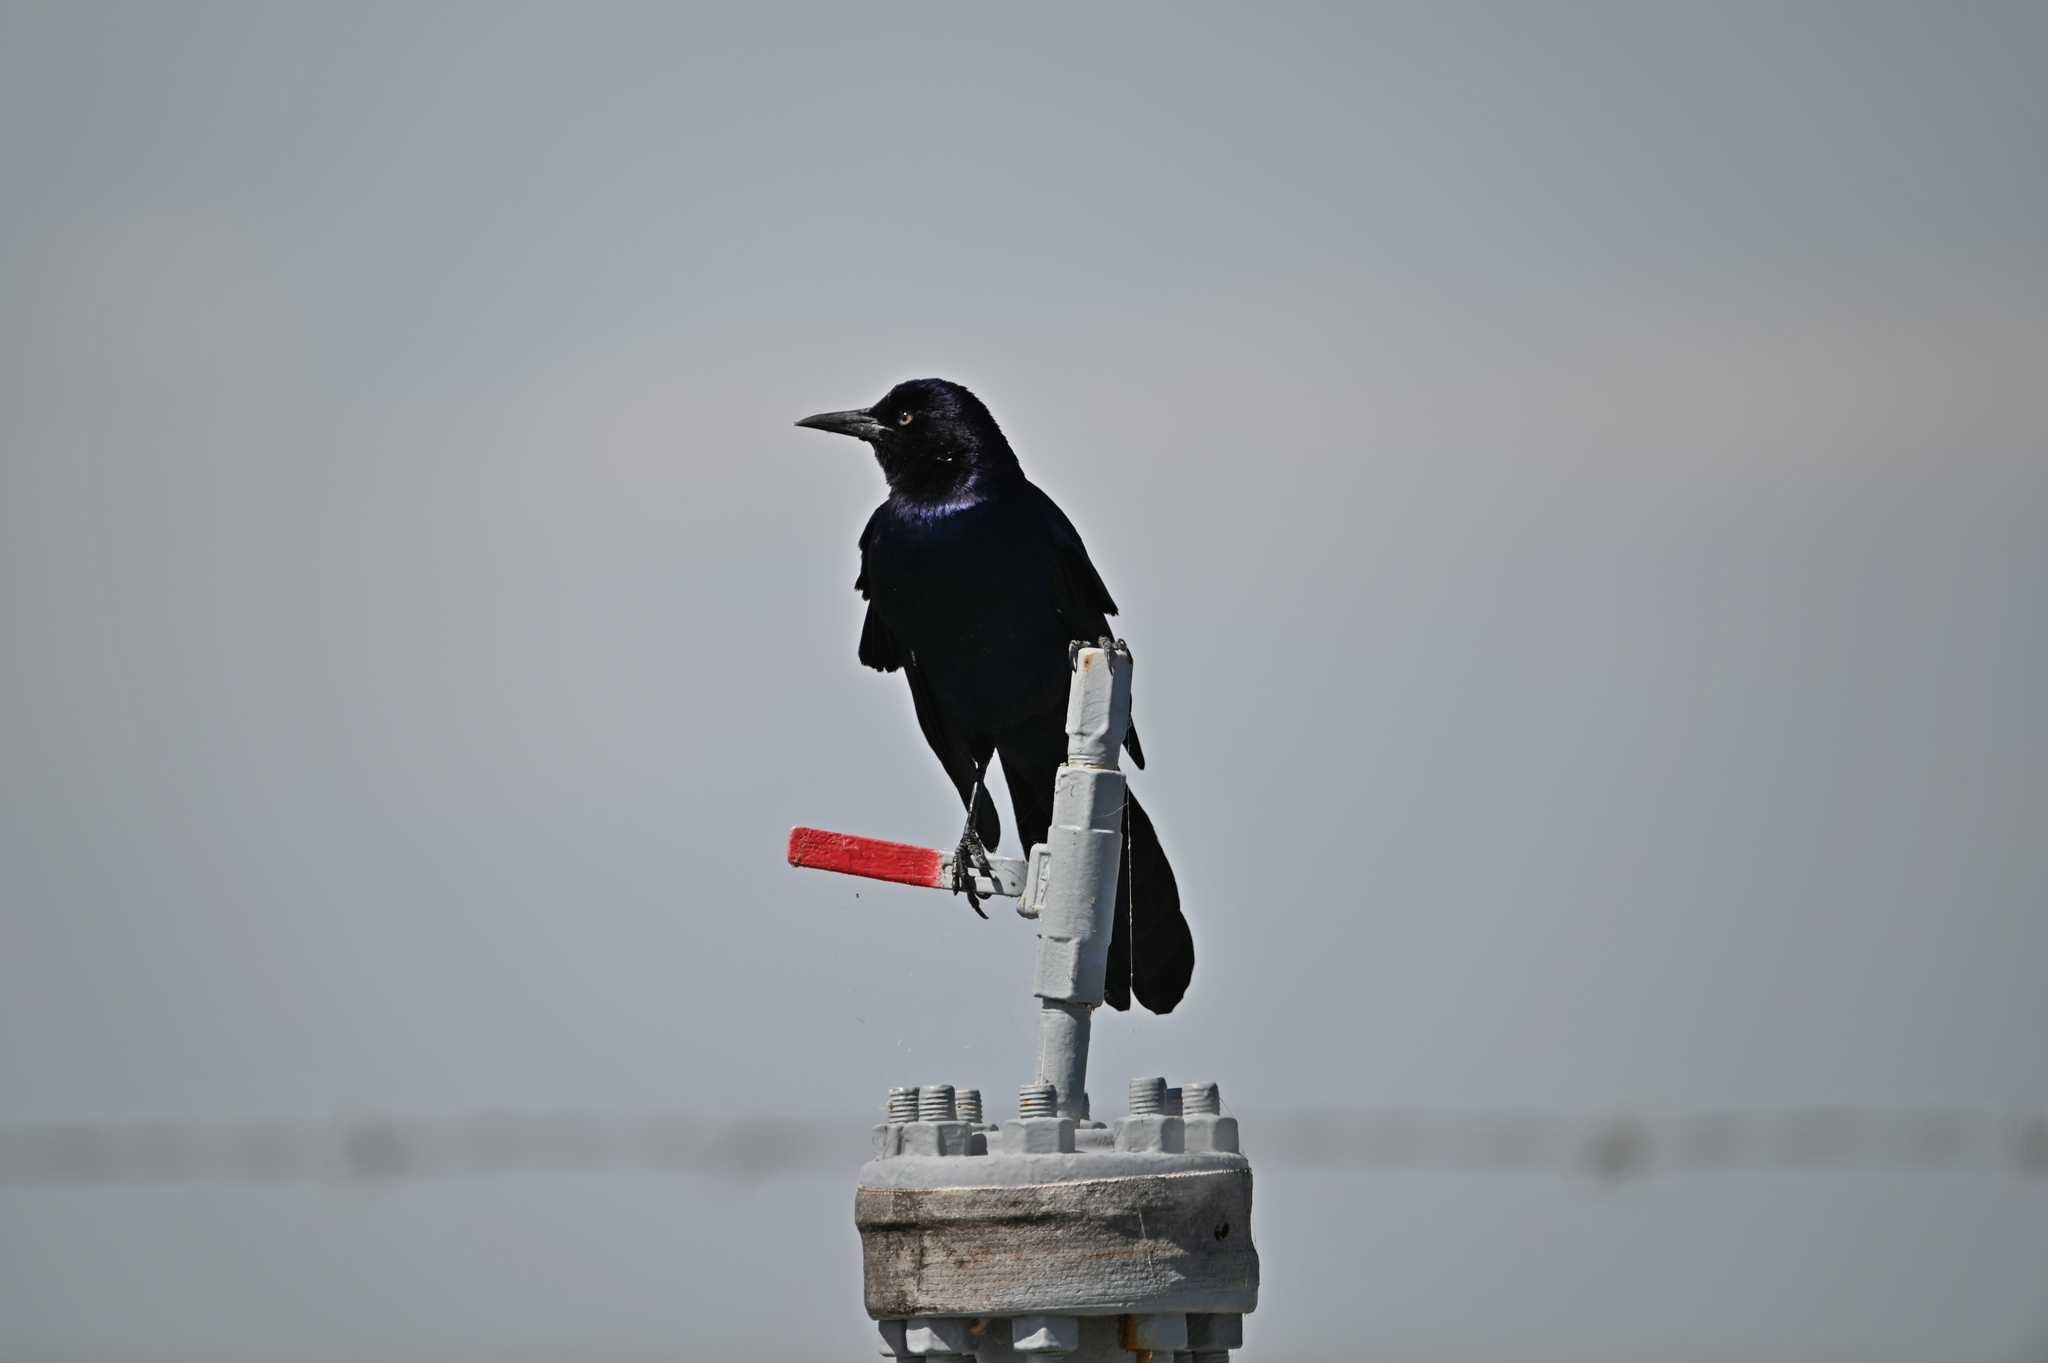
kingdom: Animalia
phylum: Chordata
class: Aves
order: Passeriformes
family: Icteridae
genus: Quiscalus
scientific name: Quiscalus major
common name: Boat-tailed grackle
